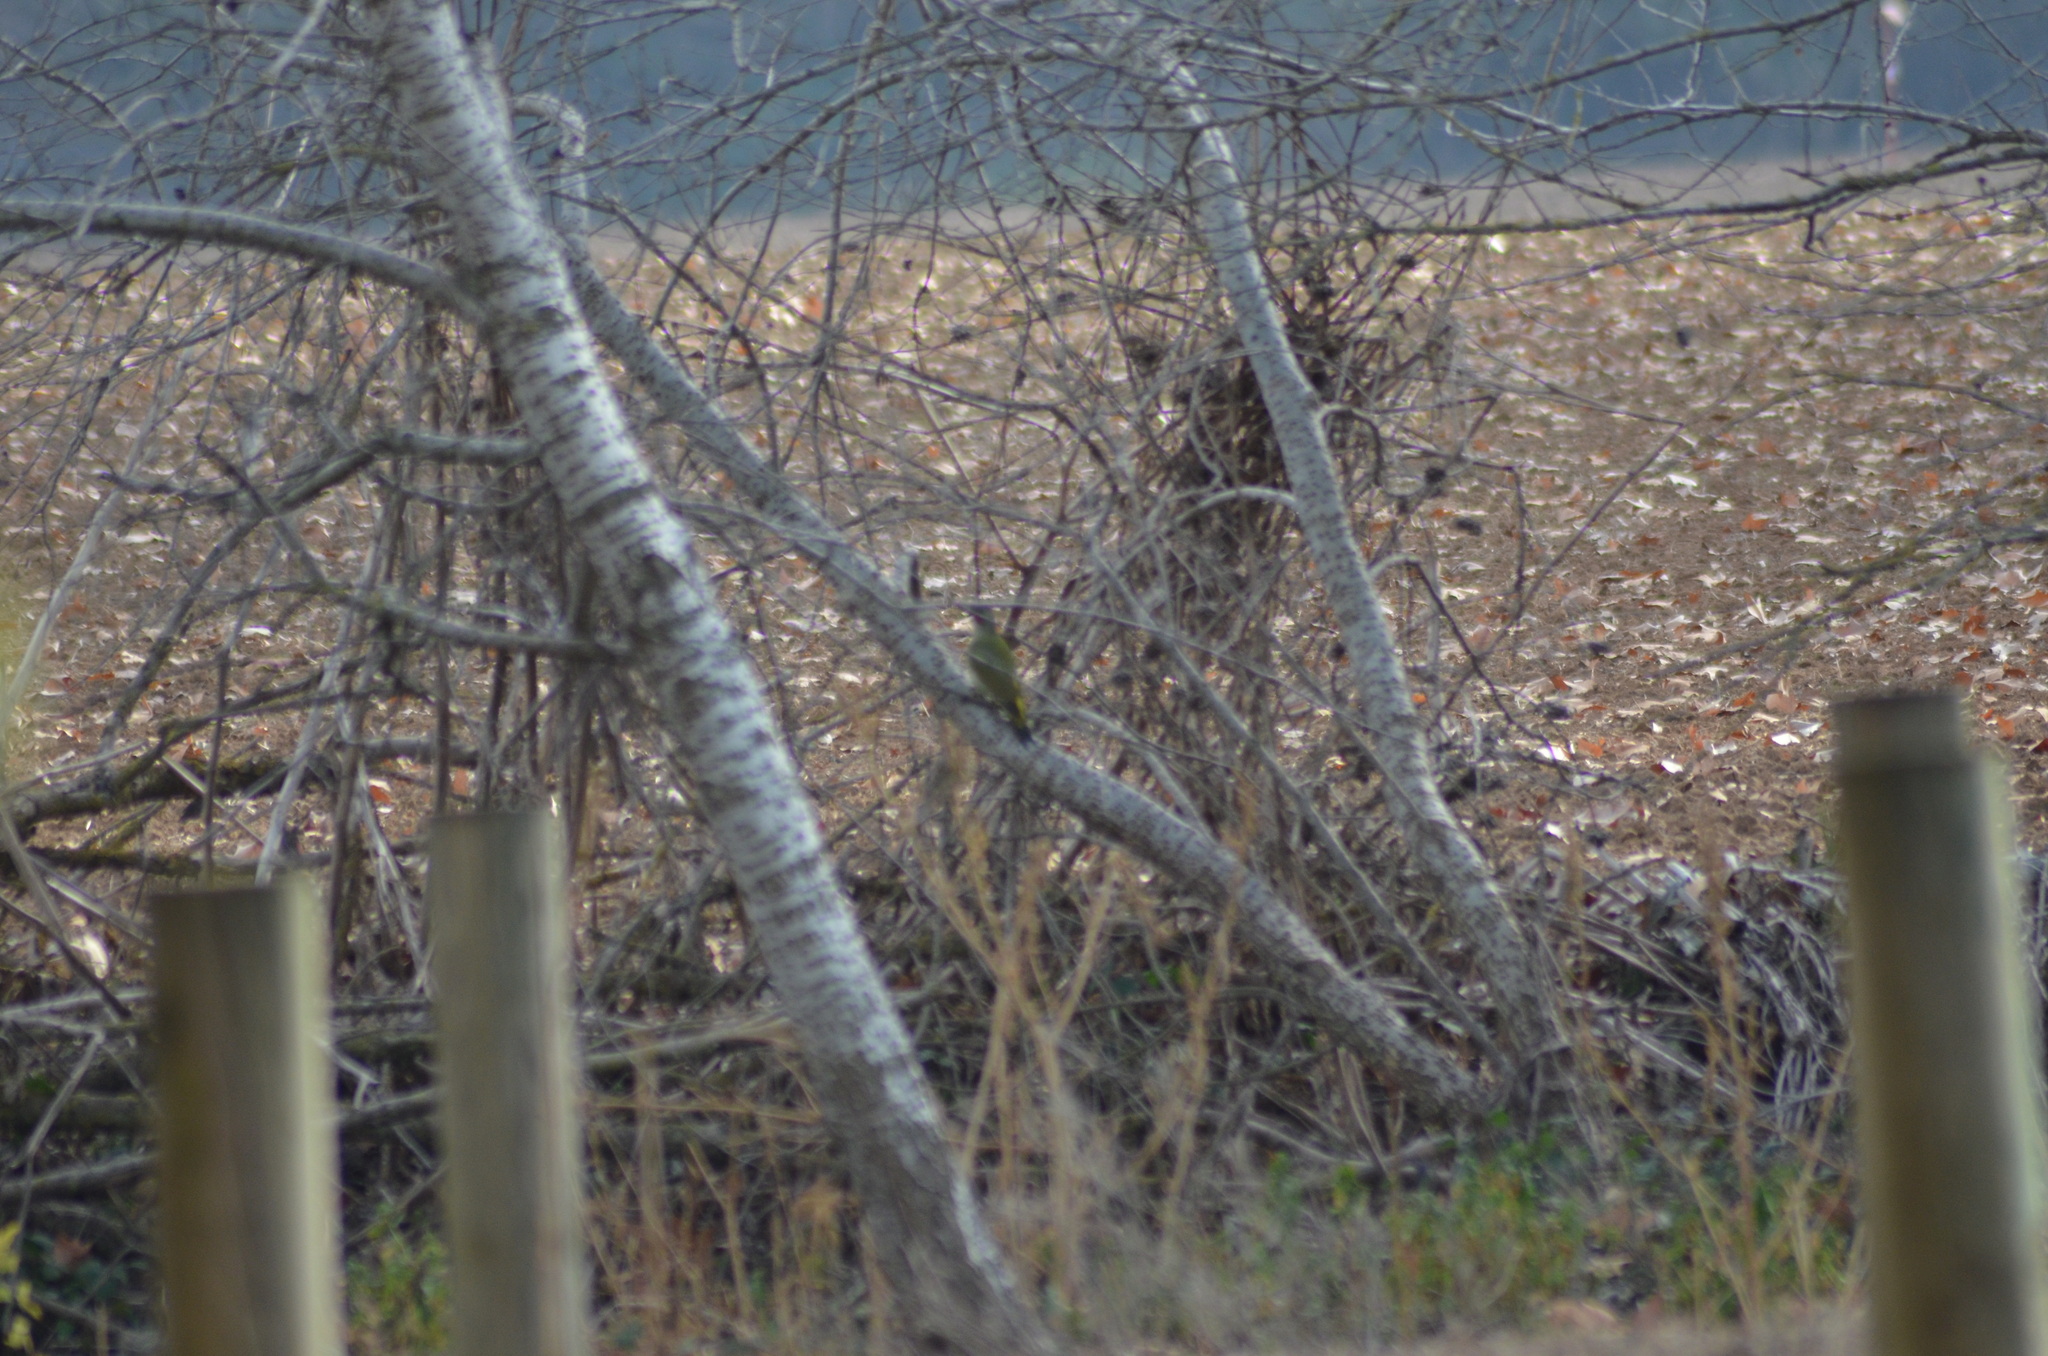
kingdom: Animalia
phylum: Chordata
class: Aves
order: Piciformes
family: Picidae
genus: Picus
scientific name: Picus sharpei
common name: Iberian green woodpecker
